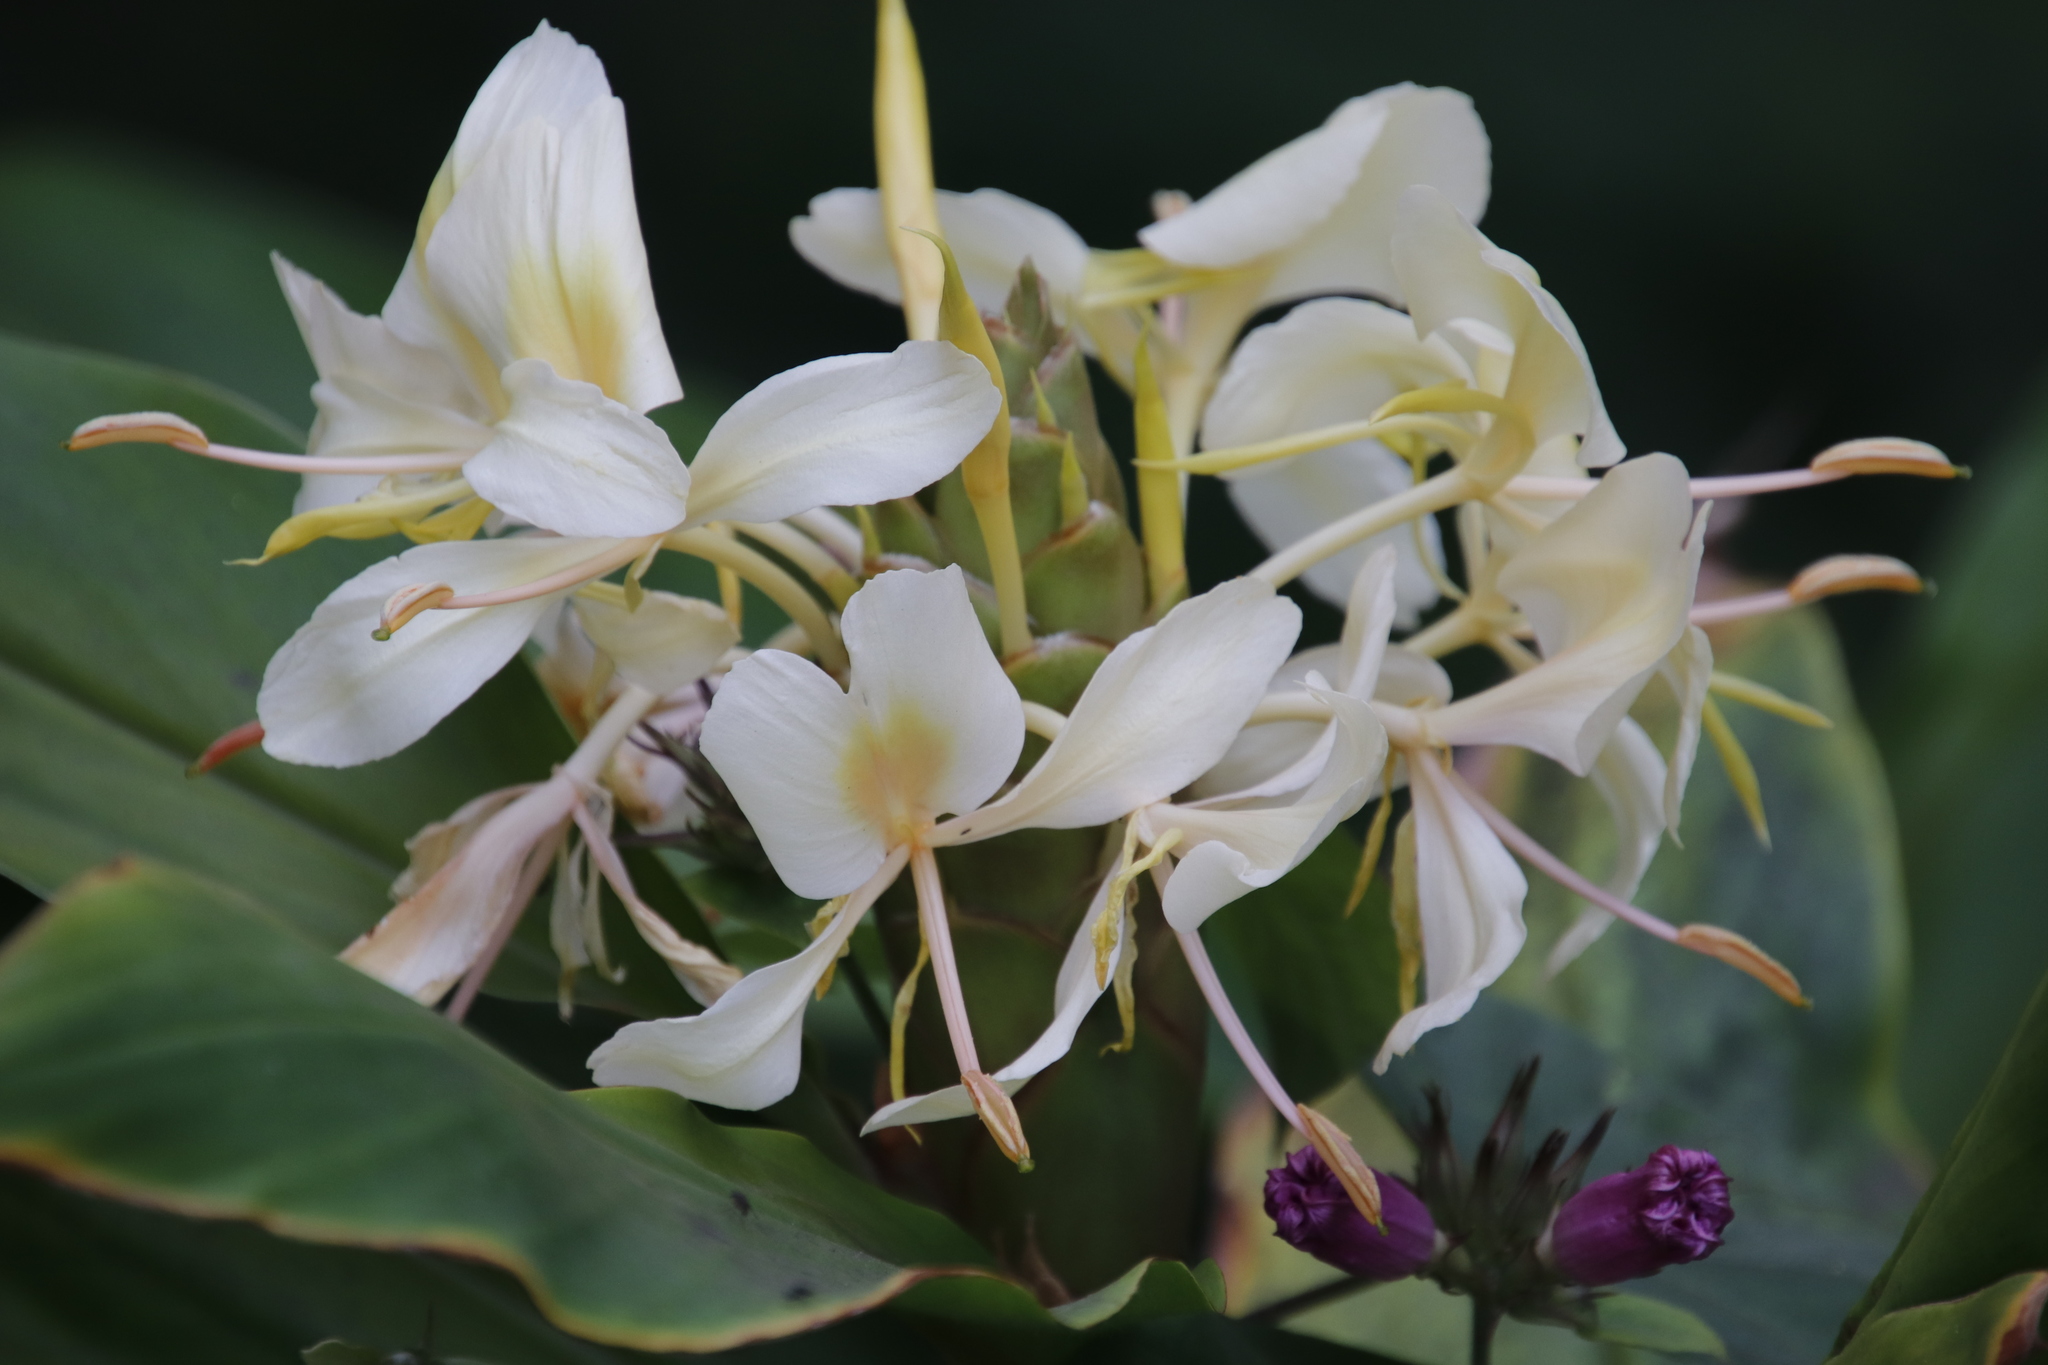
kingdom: Plantae
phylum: Tracheophyta
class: Liliopsida
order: Zingiberales
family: Zingiberaceae
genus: Hedychium
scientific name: Hedychium flavescens
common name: Yellow ginger
